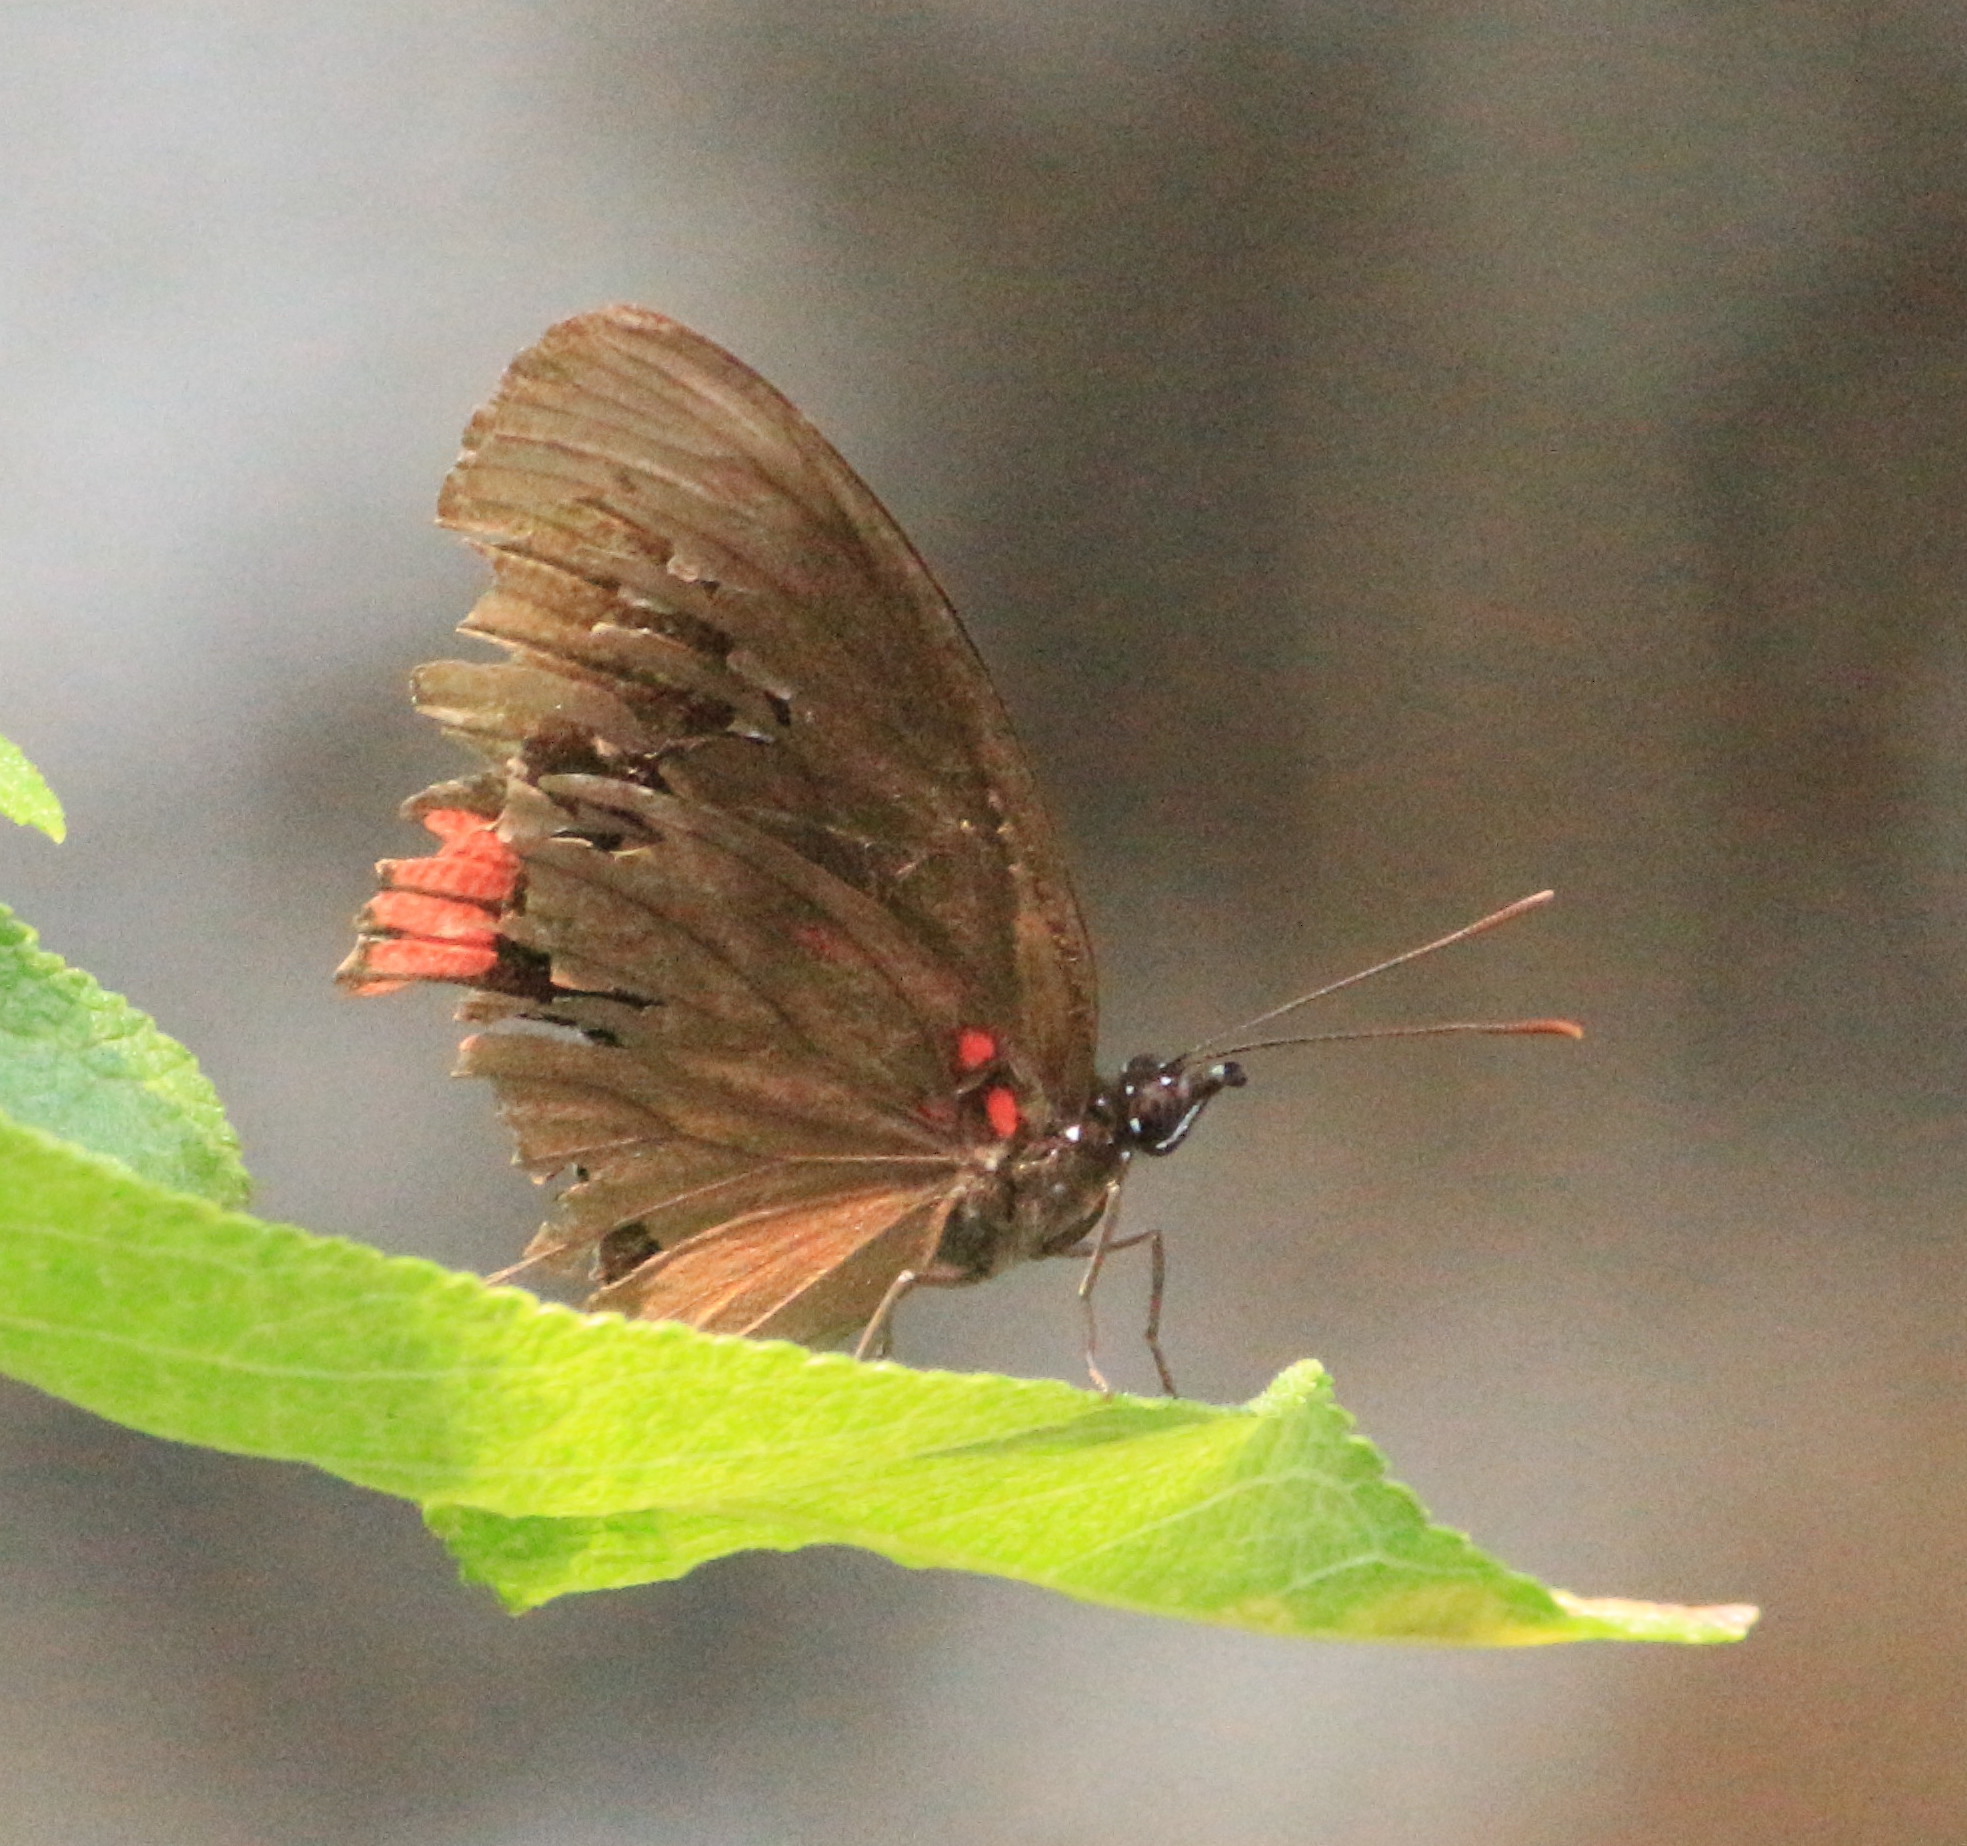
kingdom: Animalia
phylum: Arthropoda
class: Insecta
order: Lepidoptera
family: Sesiidae
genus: Sesia
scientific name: Sesia Biblis hyperia
